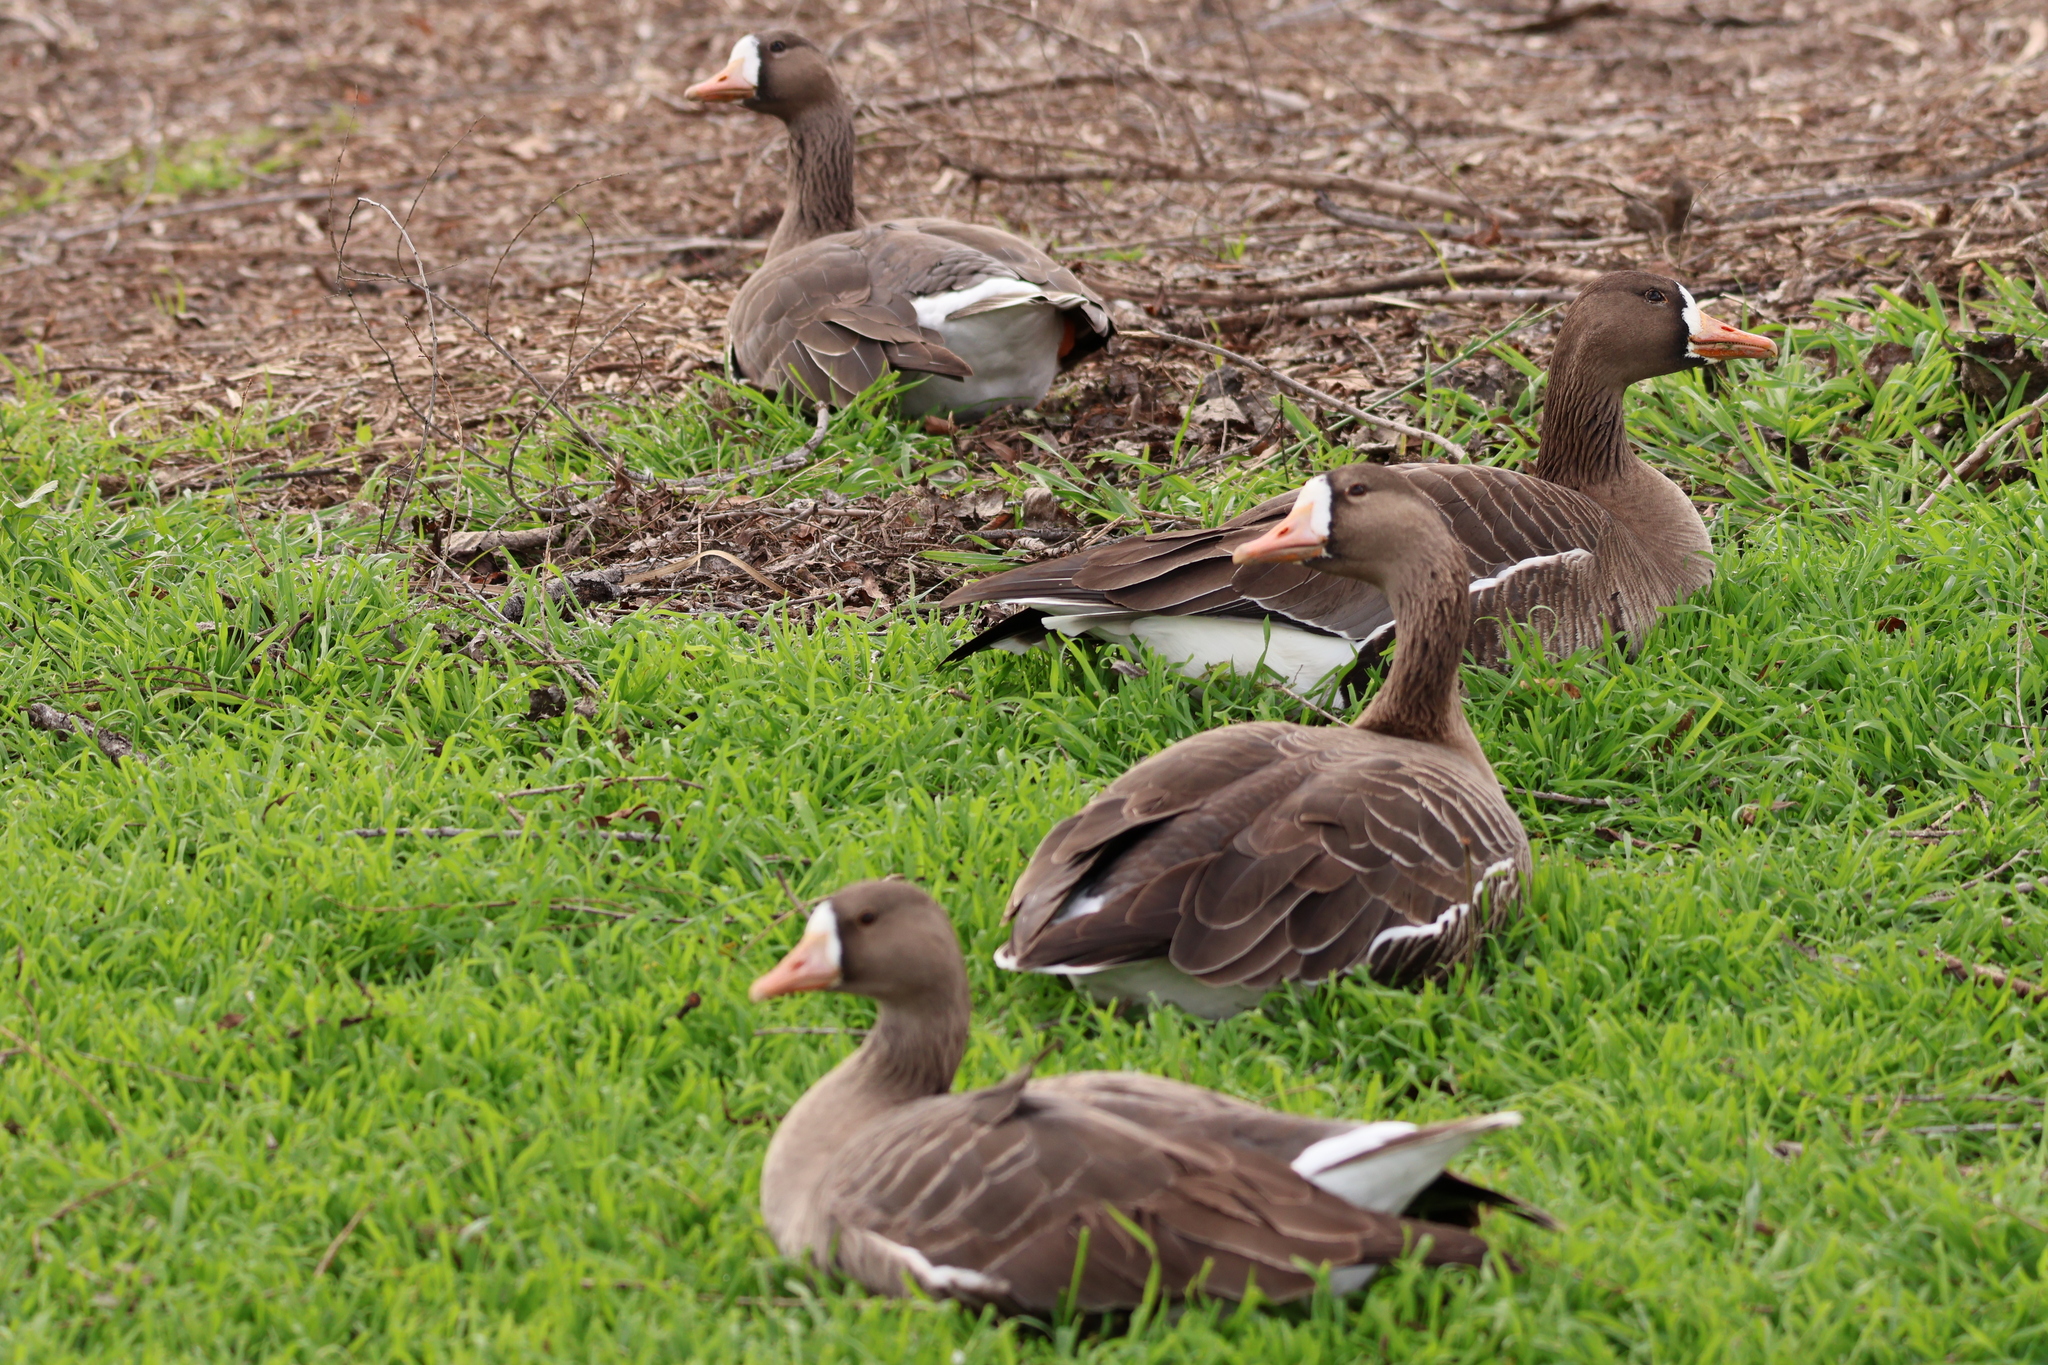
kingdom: Animalia
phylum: Chordata
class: Aves
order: Anseriformes
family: Anatidae
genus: Anser
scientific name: Anser albifrons
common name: Greater white-fronted goose
